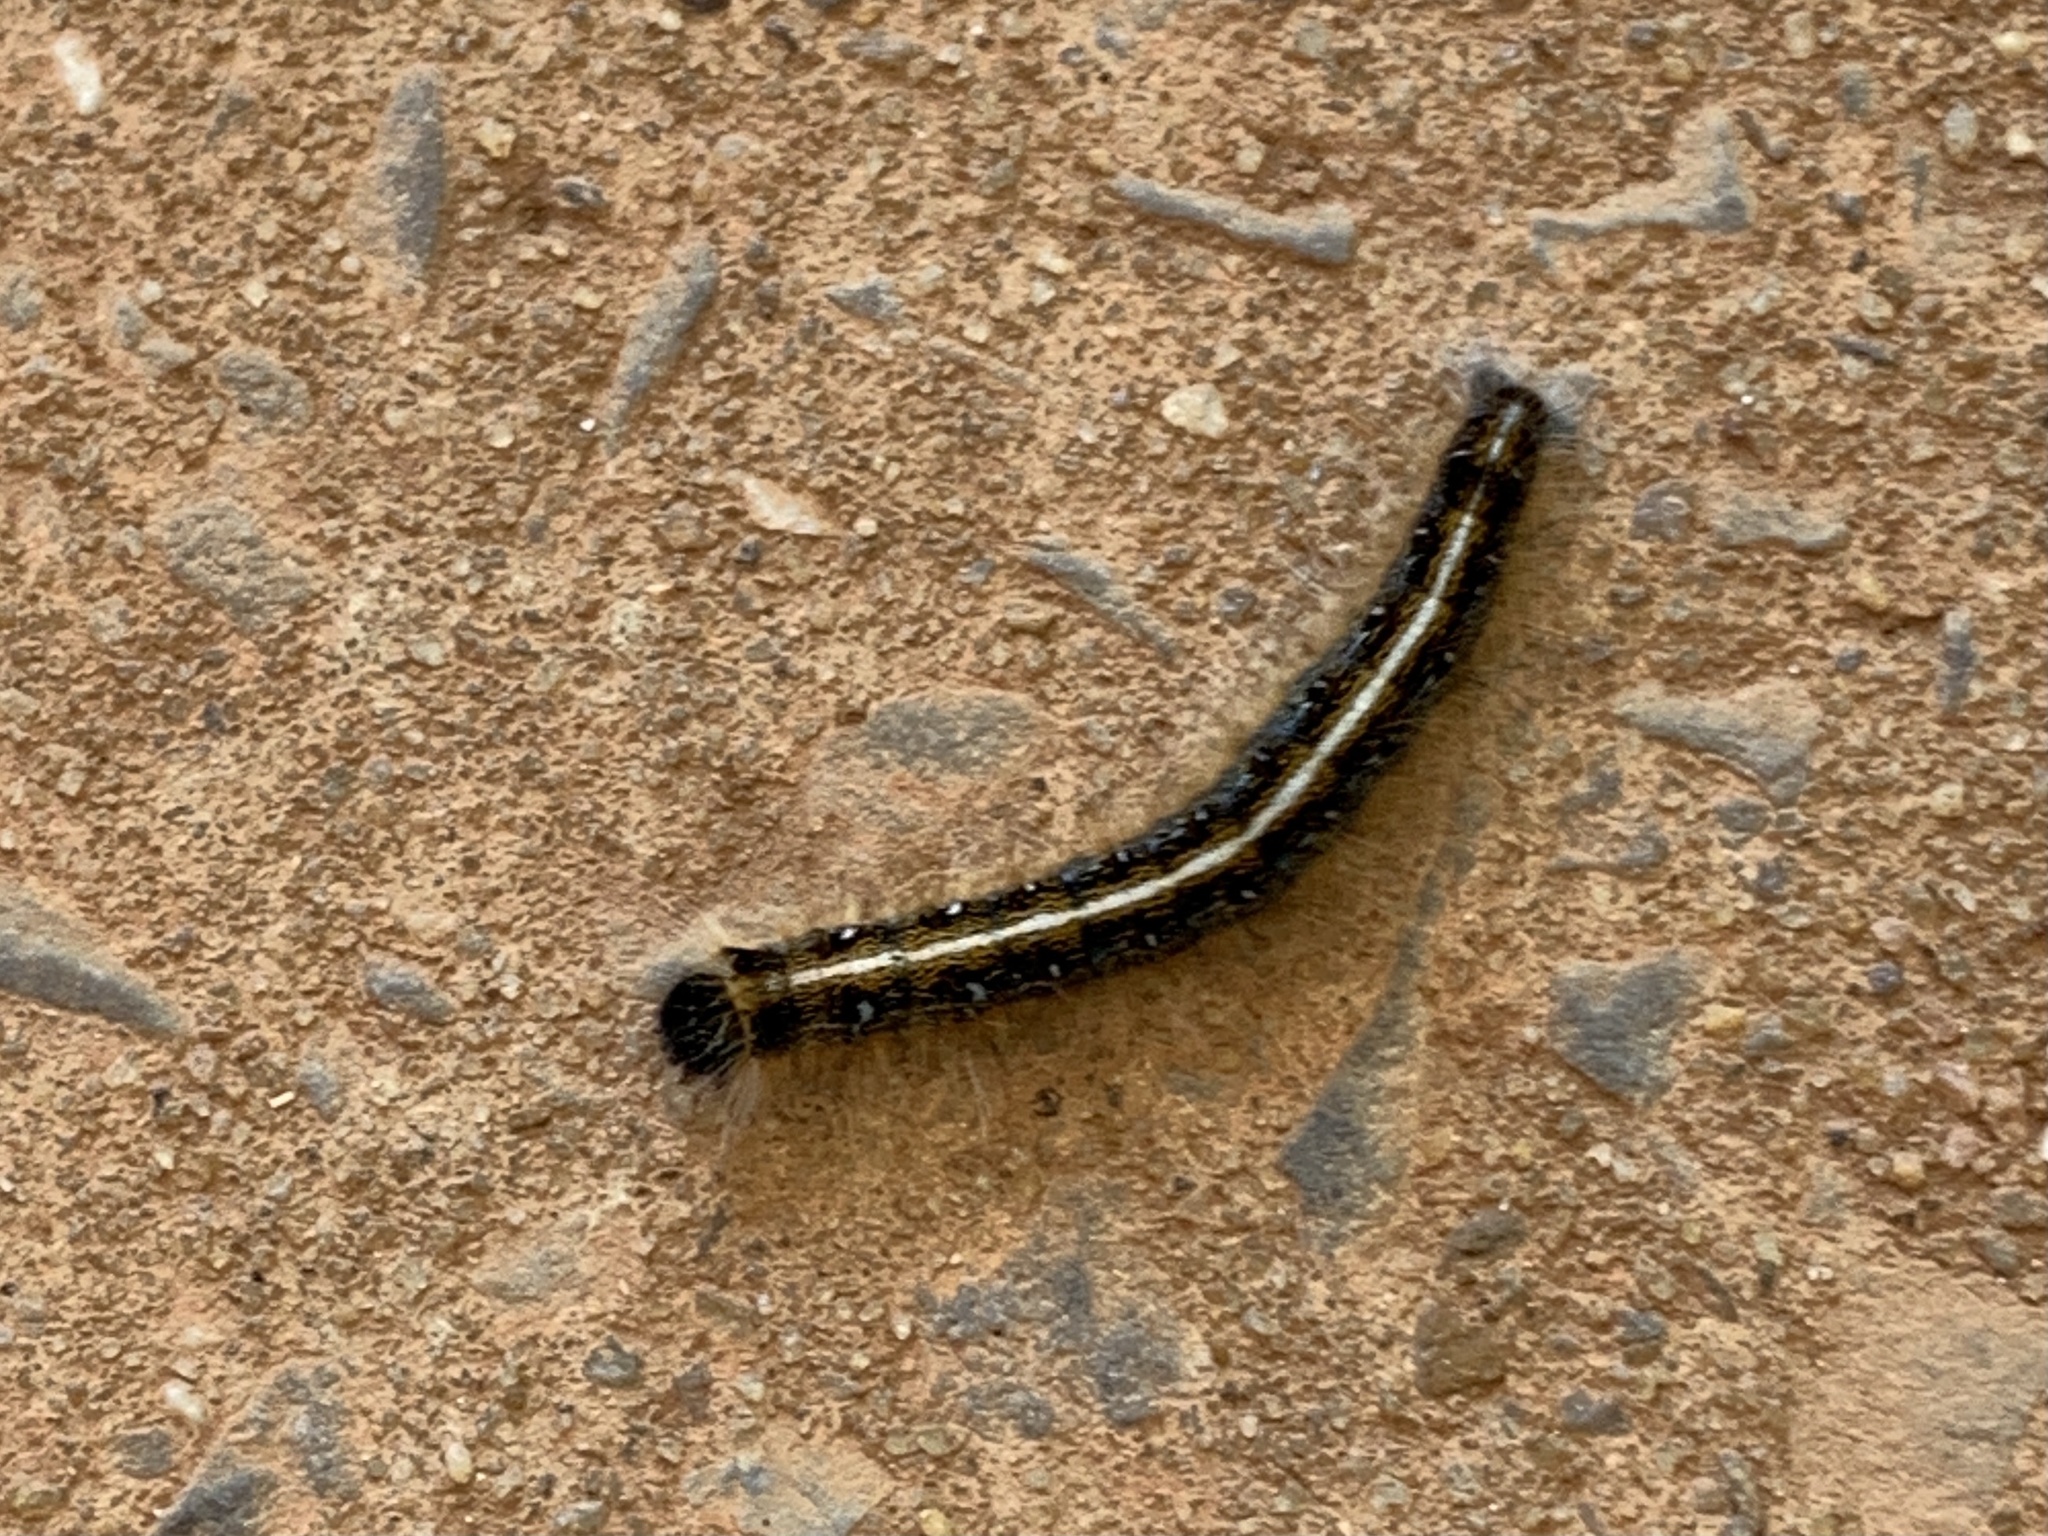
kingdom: Animalia
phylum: Arthropoda
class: Insecta
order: Lepidoptera
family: Lasiocampidae
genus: Malacosoma
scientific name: Malacosoma americana
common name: Eastern tent caterpillar moth
